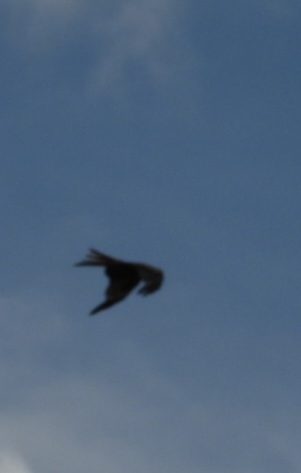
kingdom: Animalia
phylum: Chordata
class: Aves
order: Accipitriformes
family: Accipitridae
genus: Milvus
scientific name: Milvus milvus
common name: Red kite
